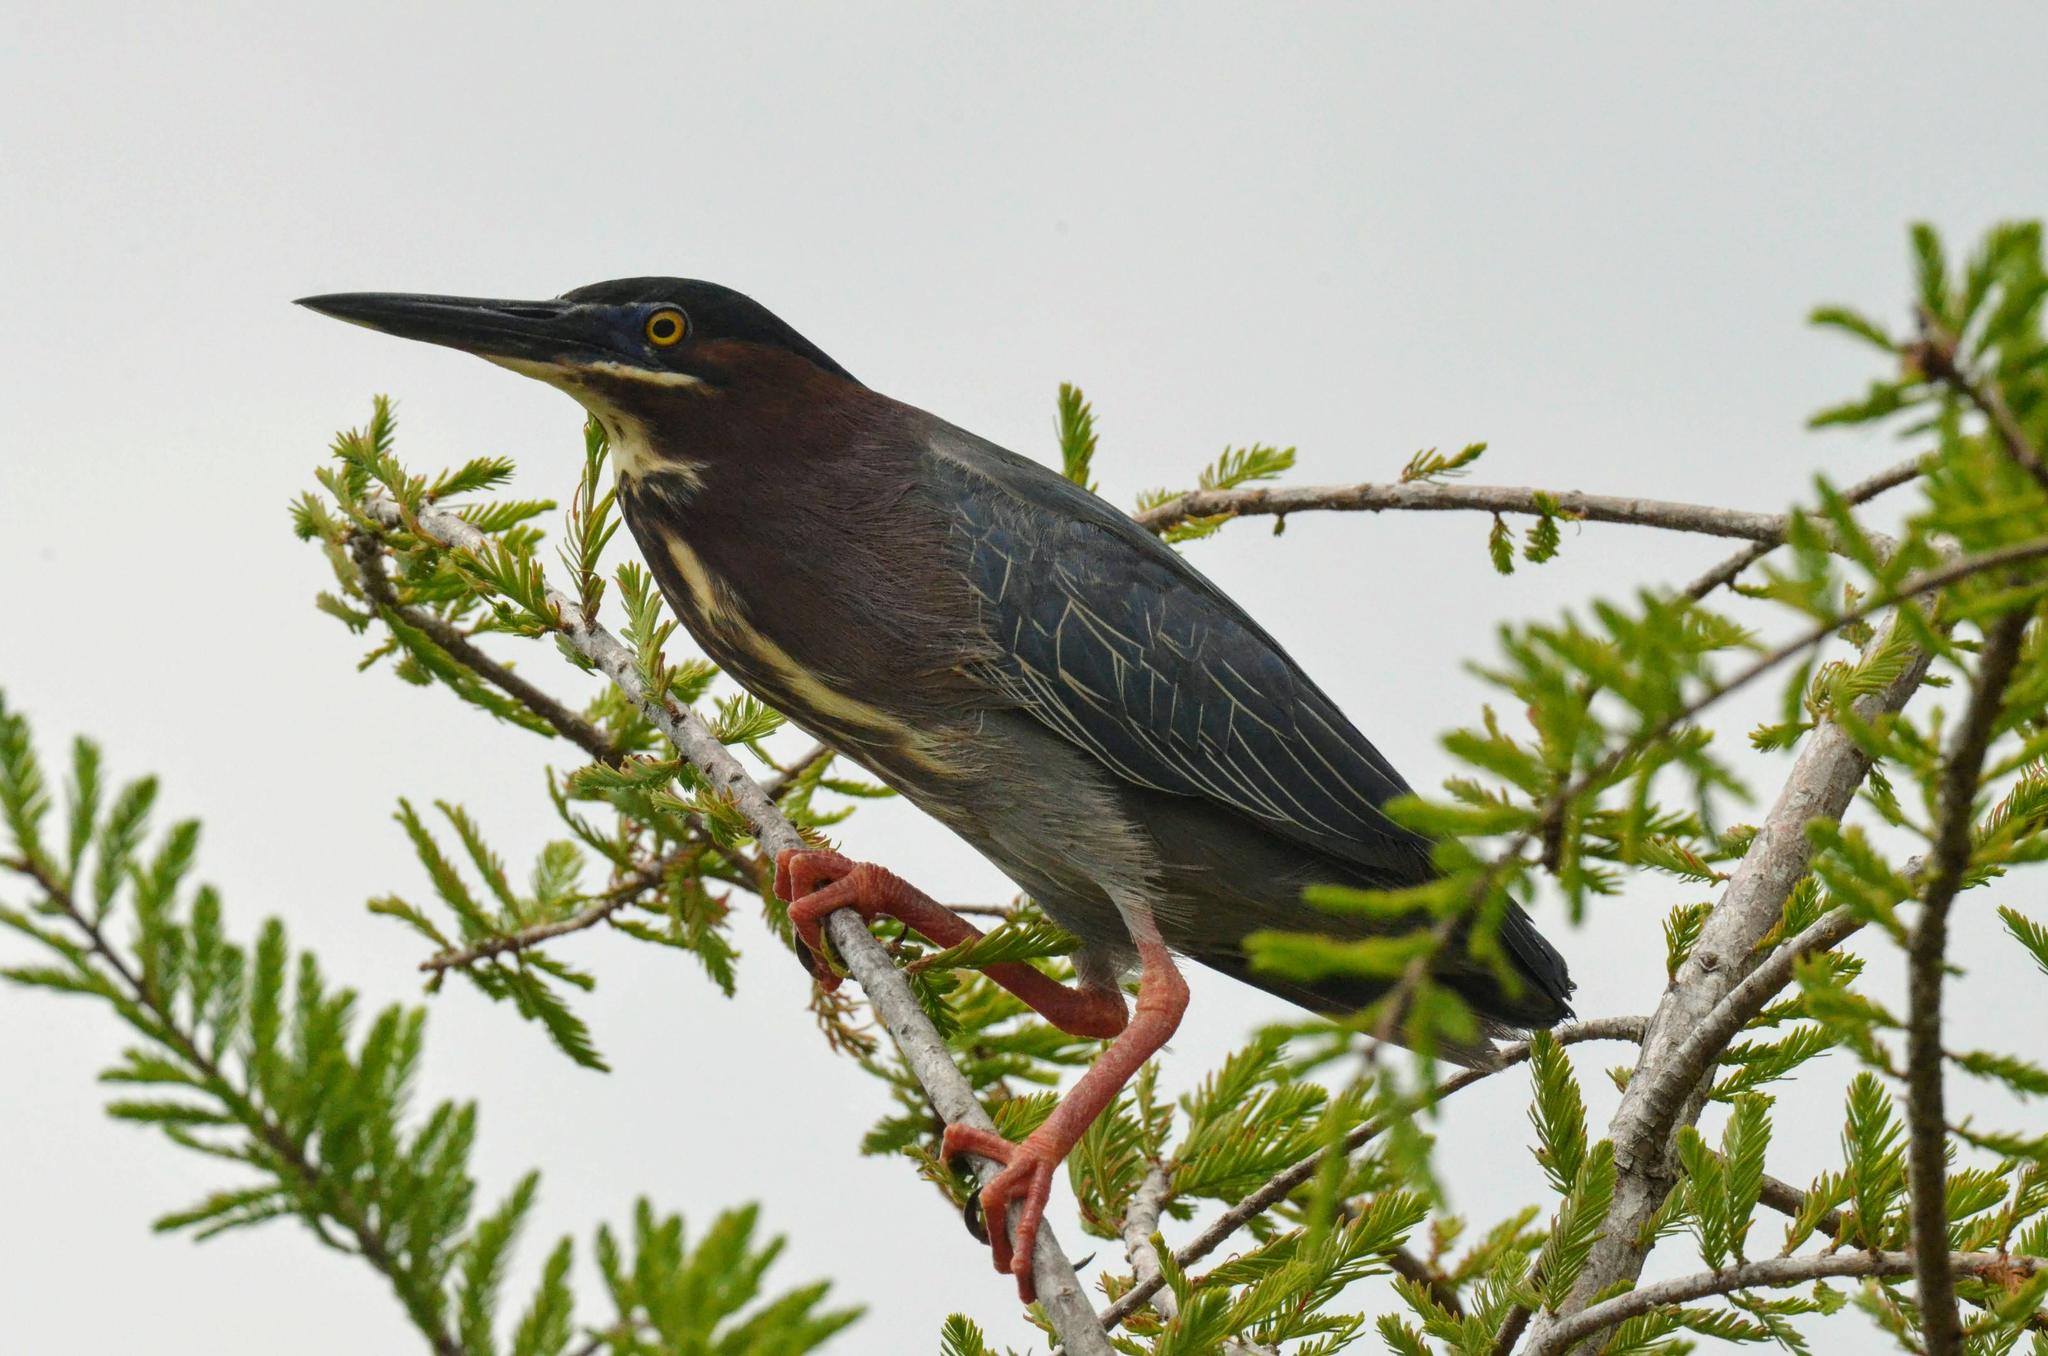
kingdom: Animalia
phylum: Chordata
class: Aves
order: Pelecaniformes
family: Ardeidae
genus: Butorides
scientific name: Butorides virescens
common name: Green heron
